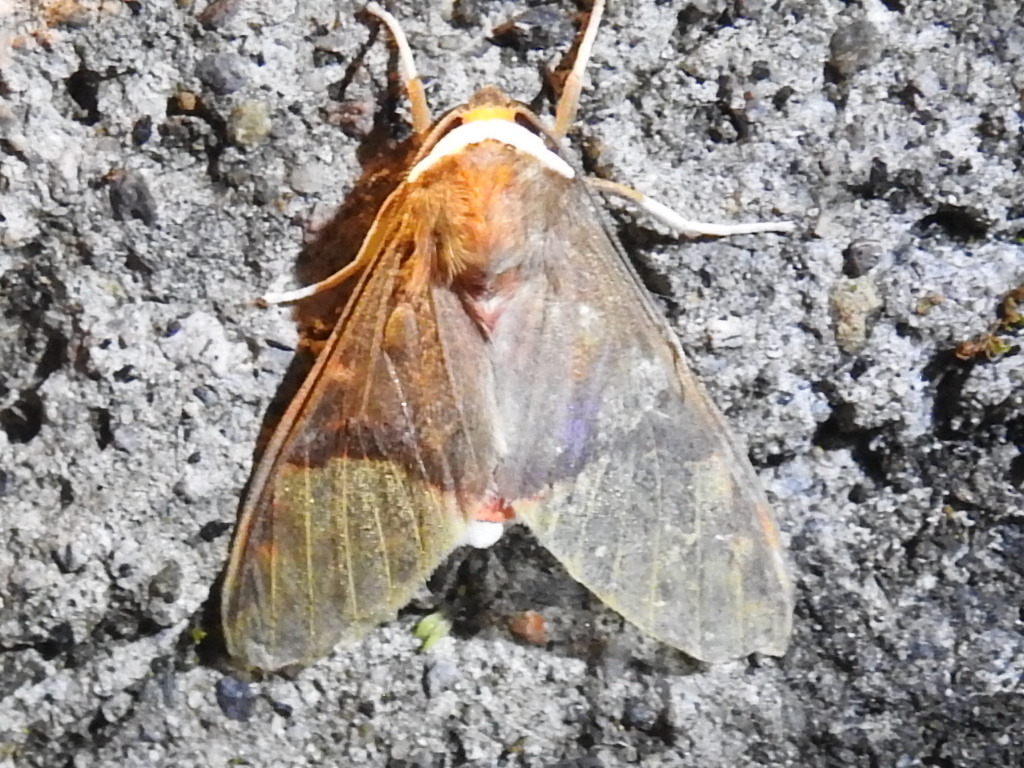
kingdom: Animalia
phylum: Arthropoda
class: Insecta
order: Lepidoptera
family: Erebidae
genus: Evius
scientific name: Evius hippia
